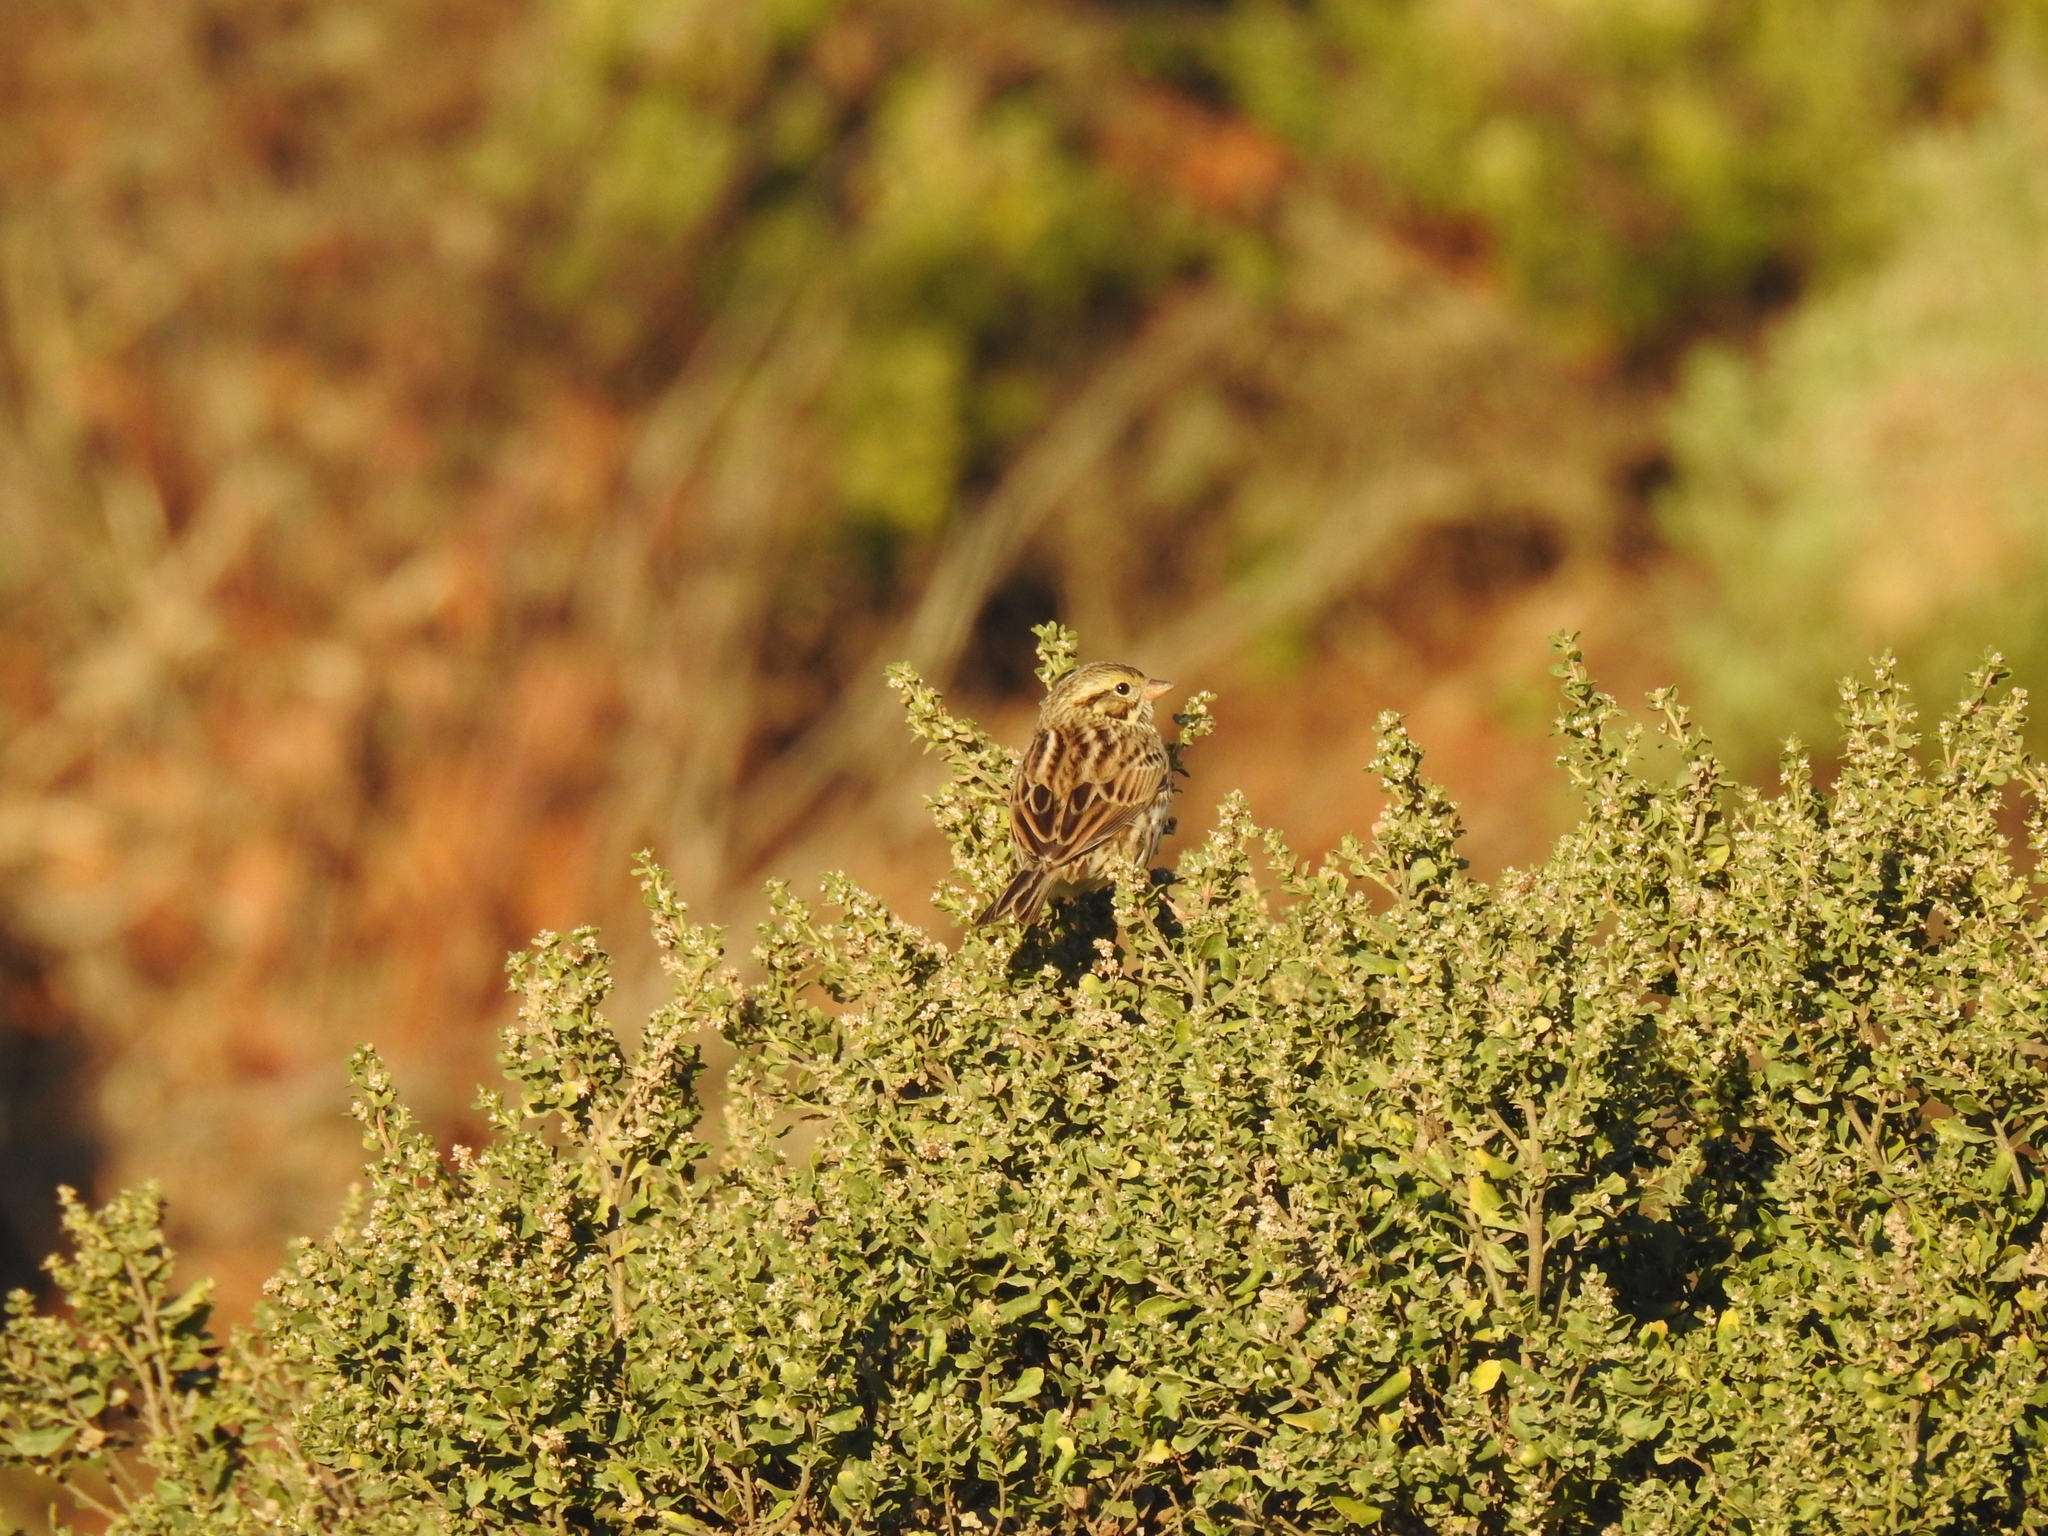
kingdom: Animalia
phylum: Chordata
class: Aves
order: Passeriformes
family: Passerellidae
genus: Passerculus
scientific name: Passerculus sandwichensis
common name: Savannah sparrow
